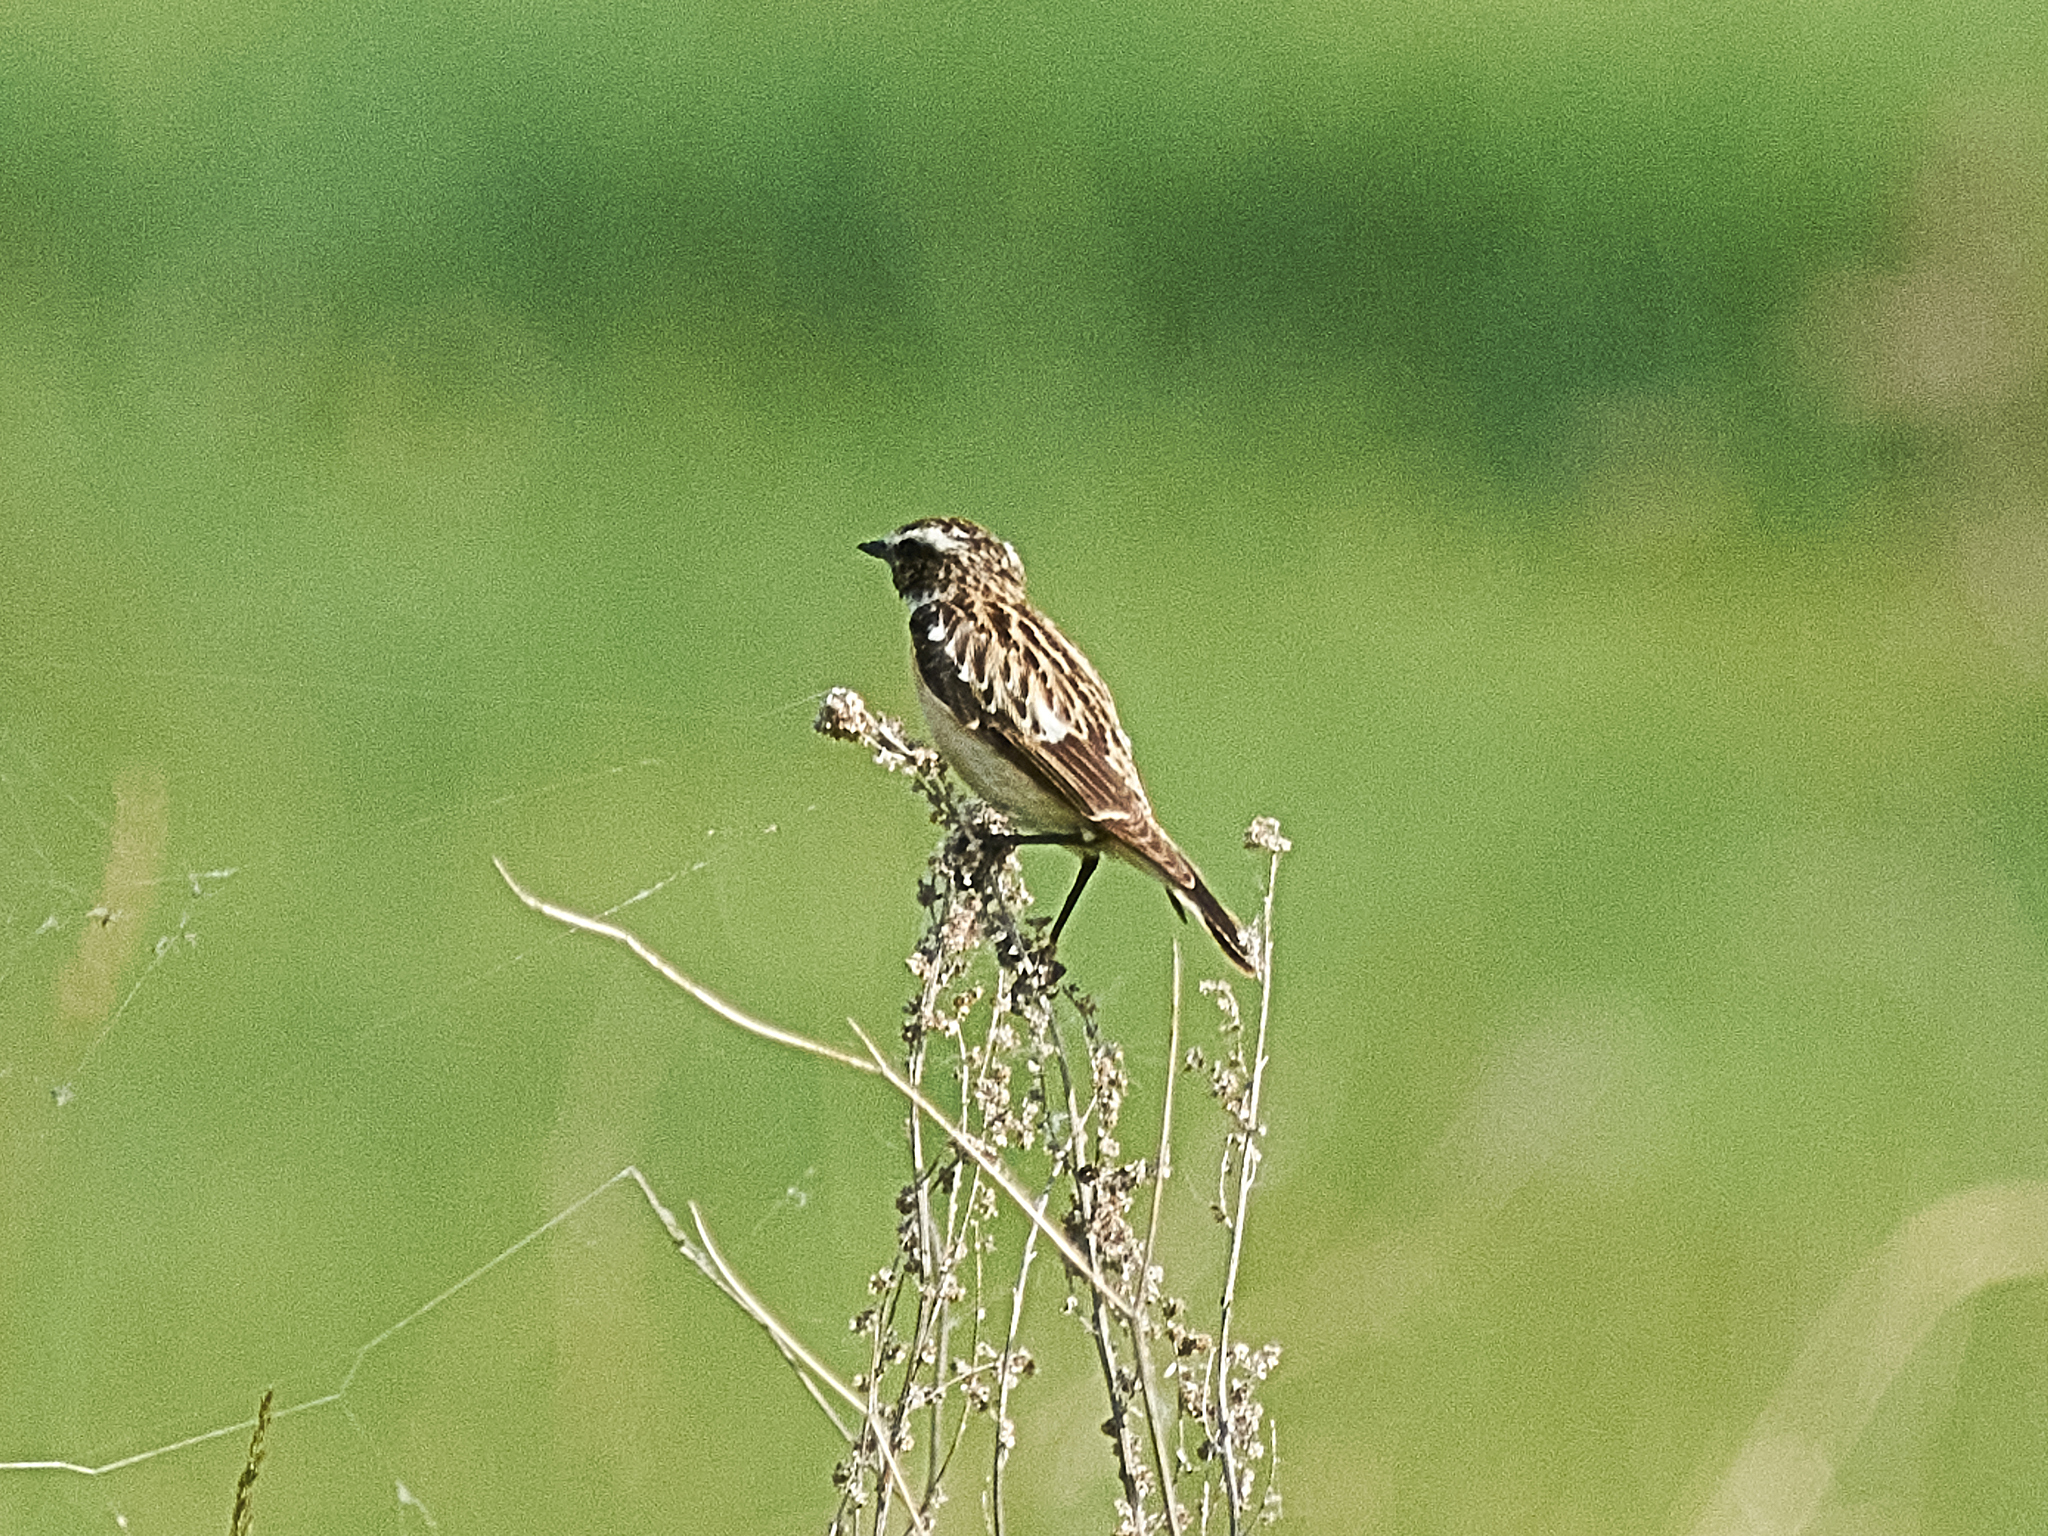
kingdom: Animalia
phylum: Chordata
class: Aves
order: Passeriformes
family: Muscicapidae
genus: Saxicola
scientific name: Saxicola rubetra
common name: Whinchat
